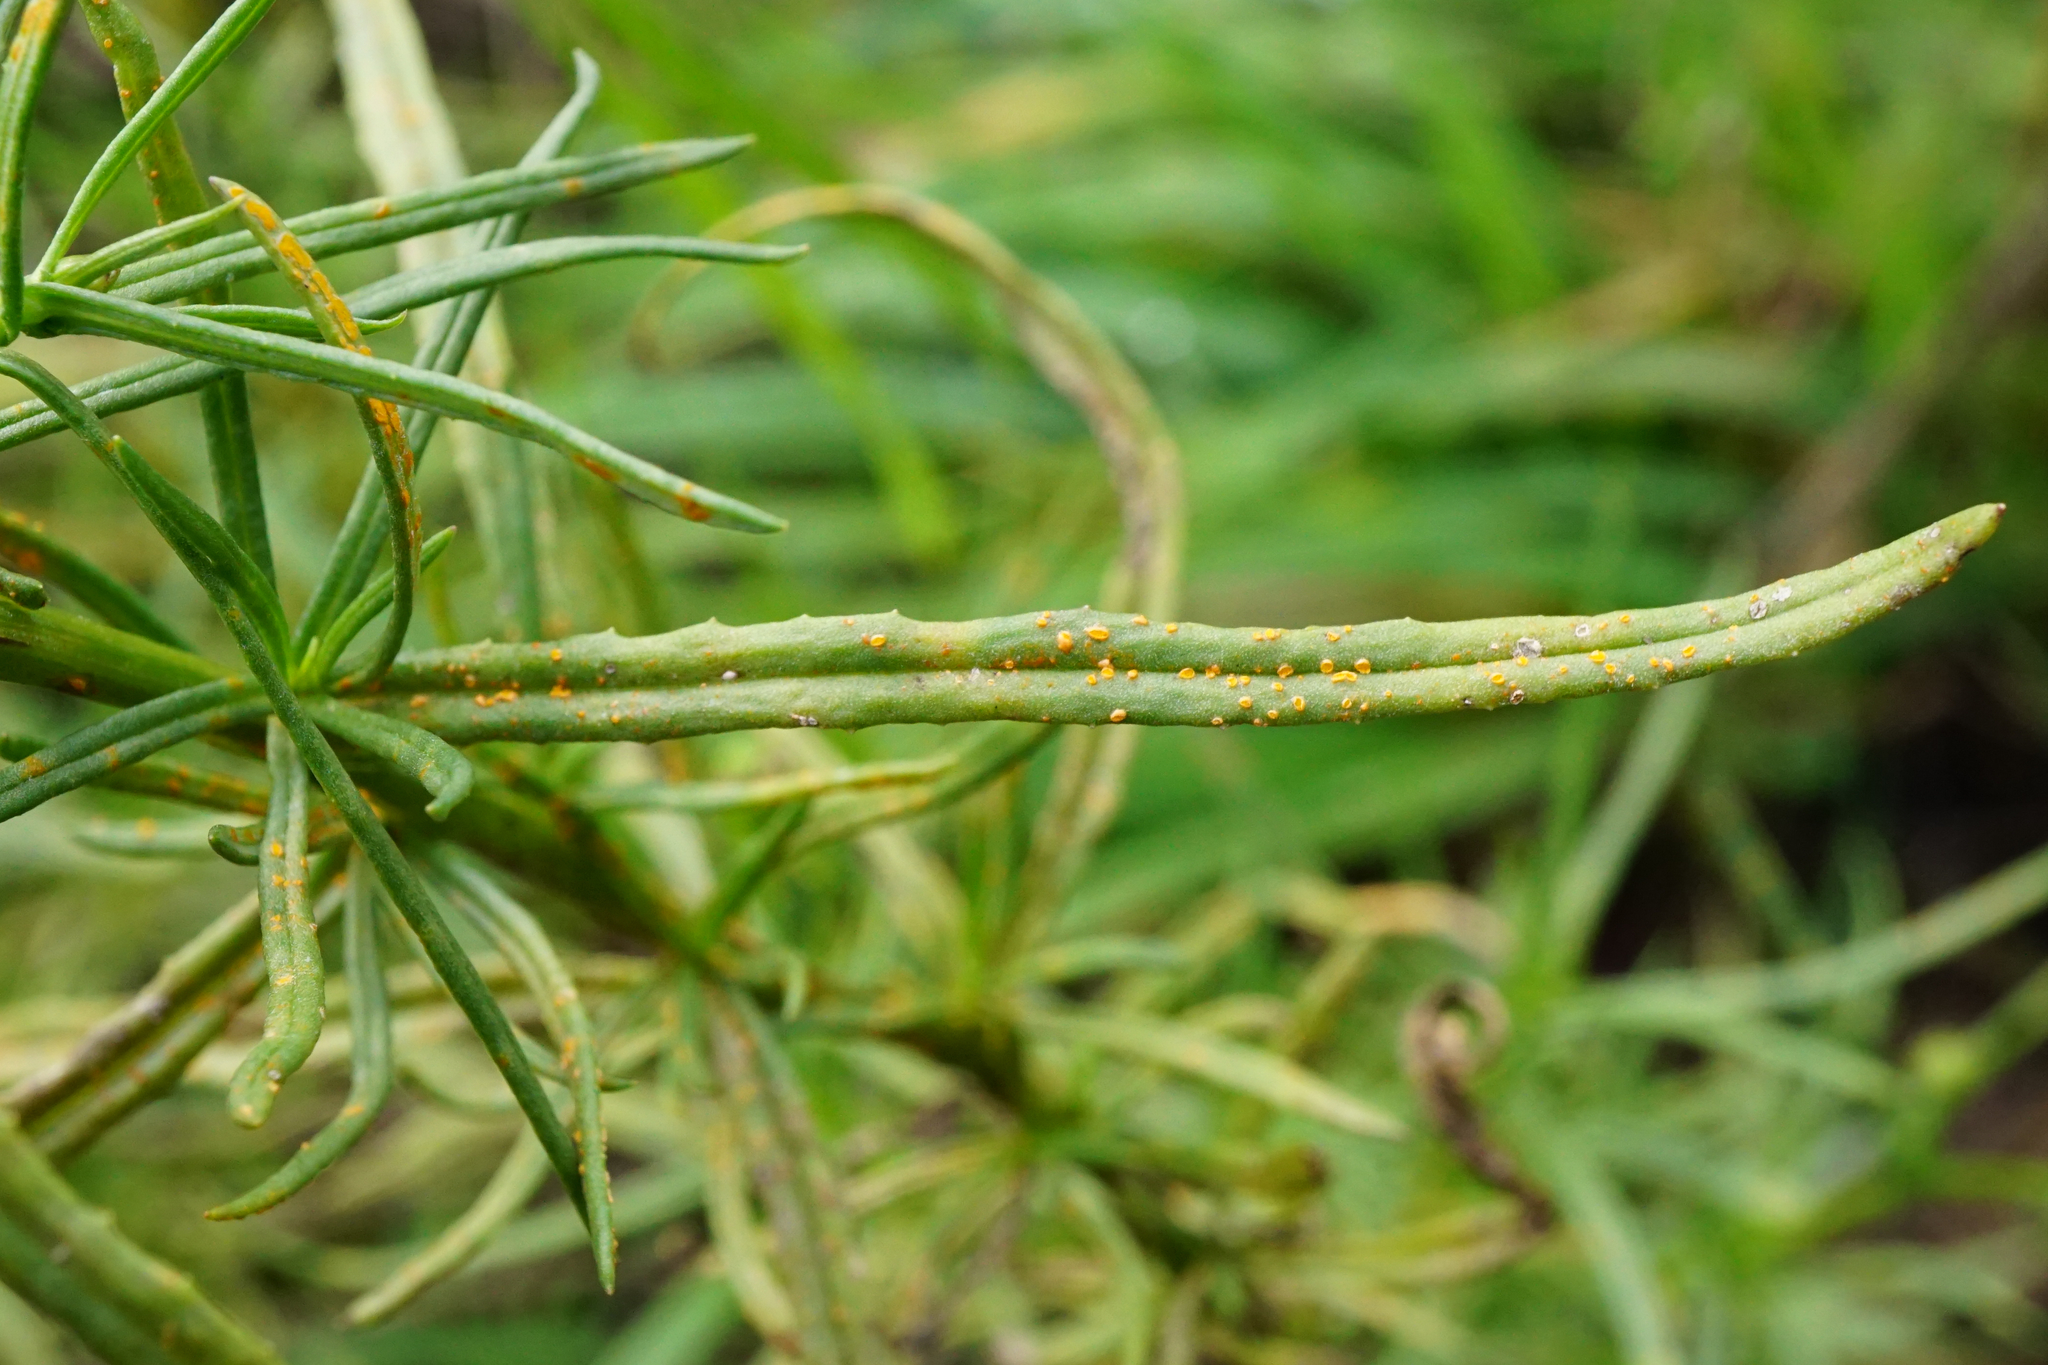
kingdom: Fungi
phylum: Basidiomycota
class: Pucciniomycetes
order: Pucciniales
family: Coleosporiaceae
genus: Coleosporium
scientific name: Coleosporium senecionis
